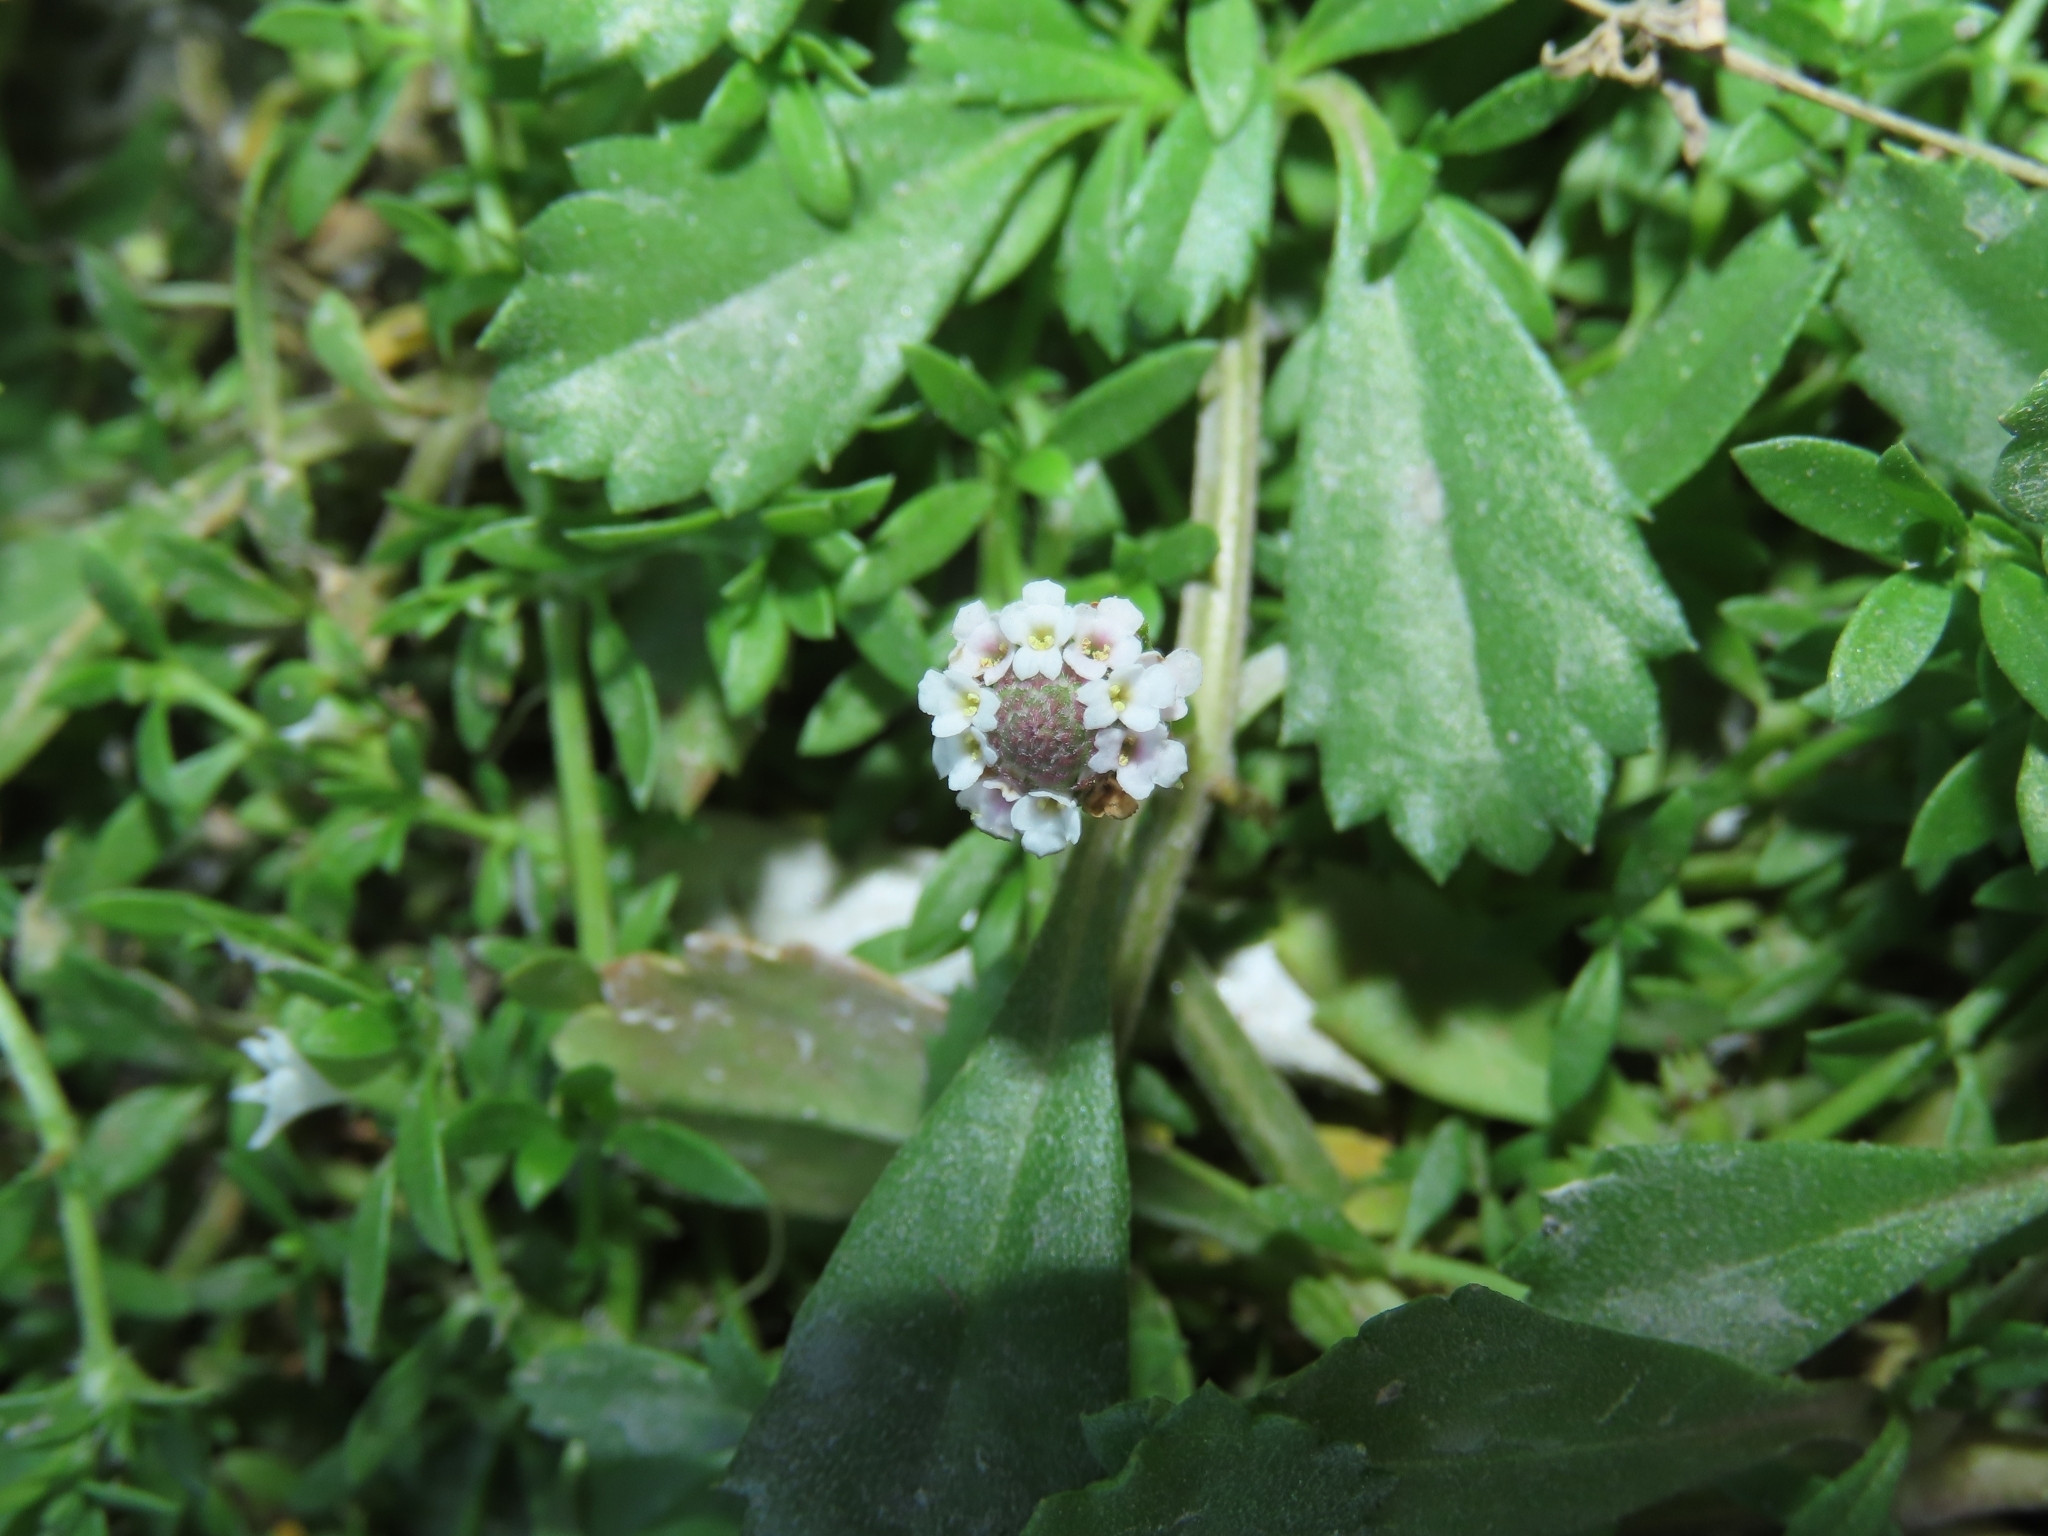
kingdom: Plantae
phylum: Tracheophyta
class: Magnoliopsida
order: Lamiales
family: Verbenaceae
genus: Phyla
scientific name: Phyla nodiflora
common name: Frogfruit
